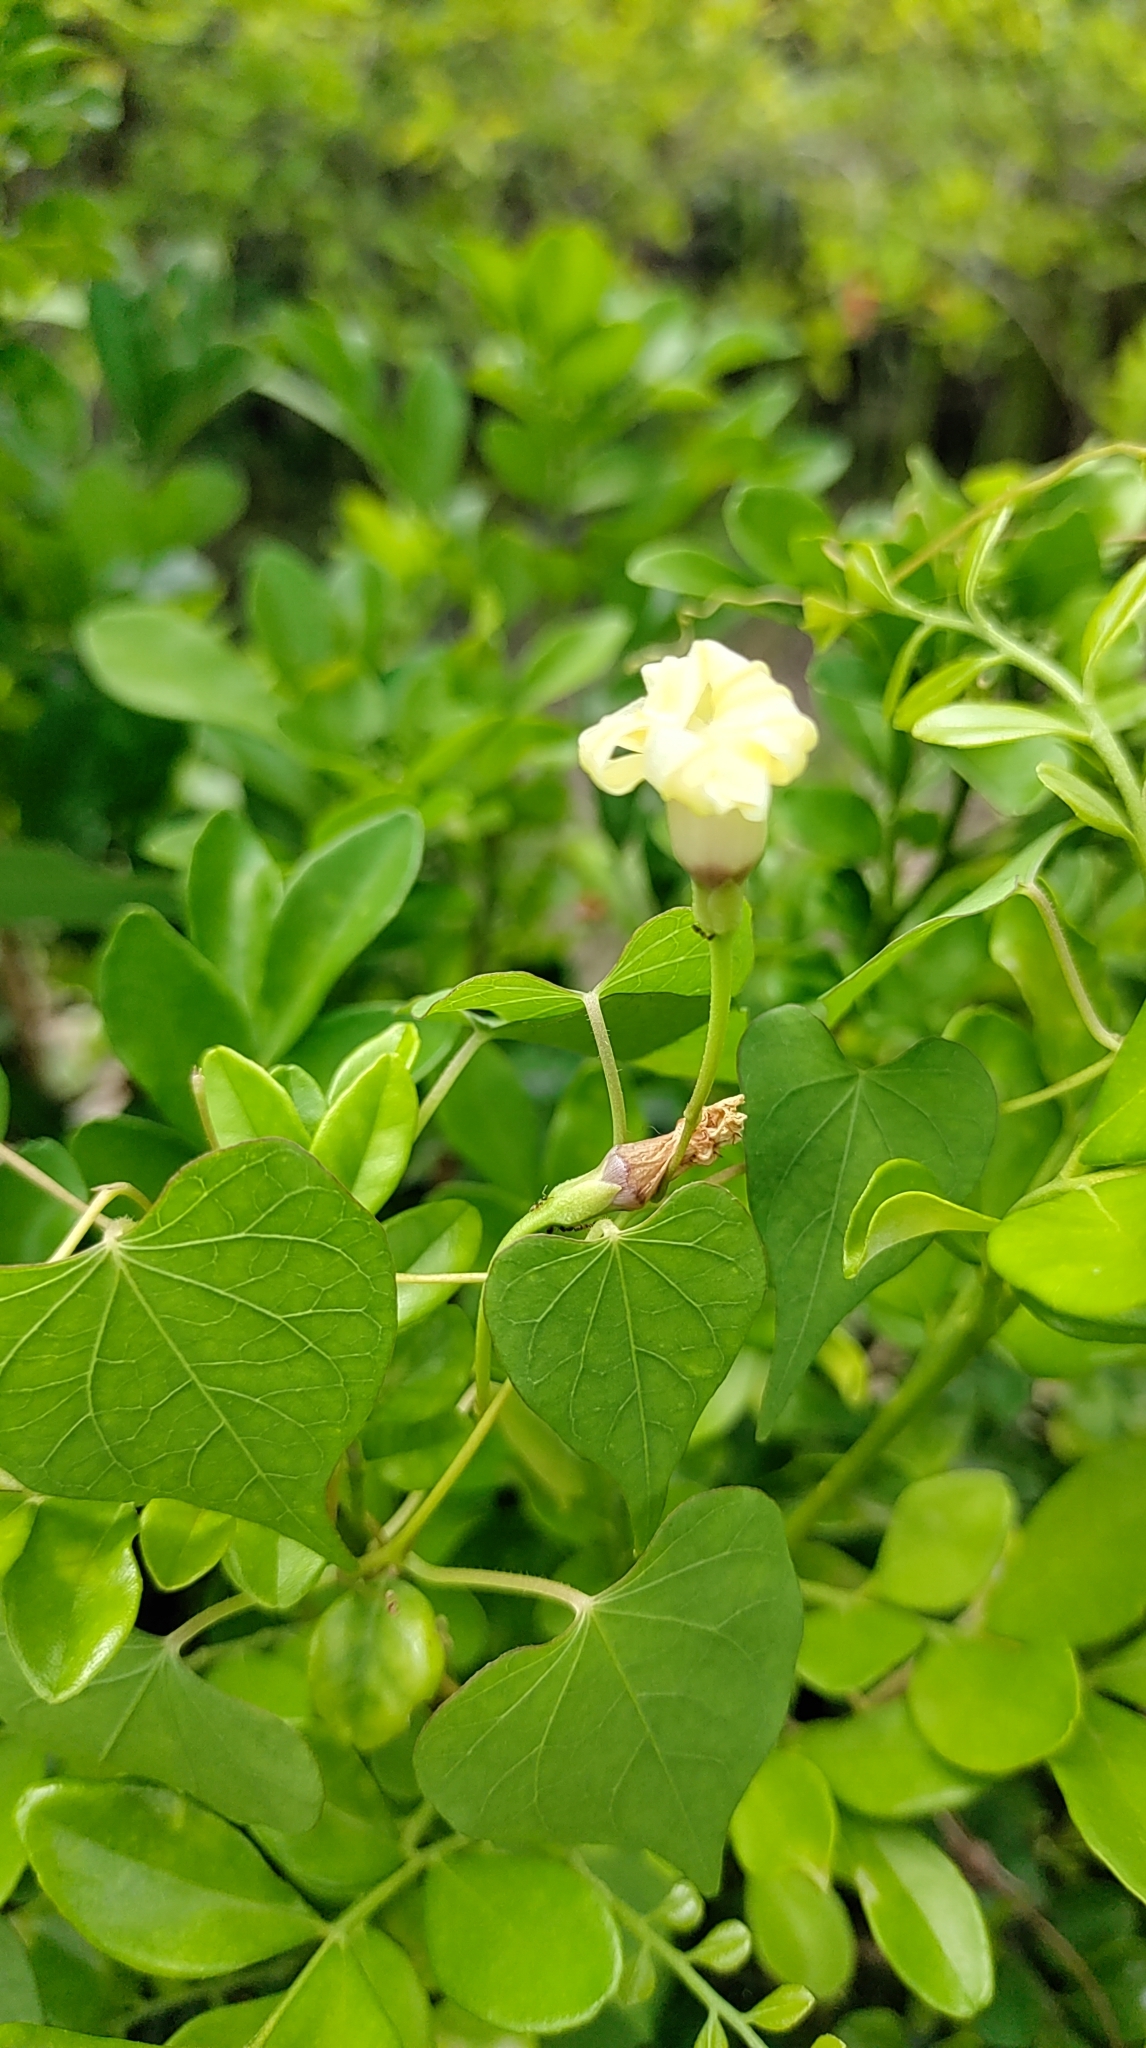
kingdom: Plantae
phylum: Tracheophyta
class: Magnoliopsida
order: Solanales
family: Convolvulaceae
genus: Ipomoea
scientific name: Ipomoea obscura
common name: Obscure morning-glory
